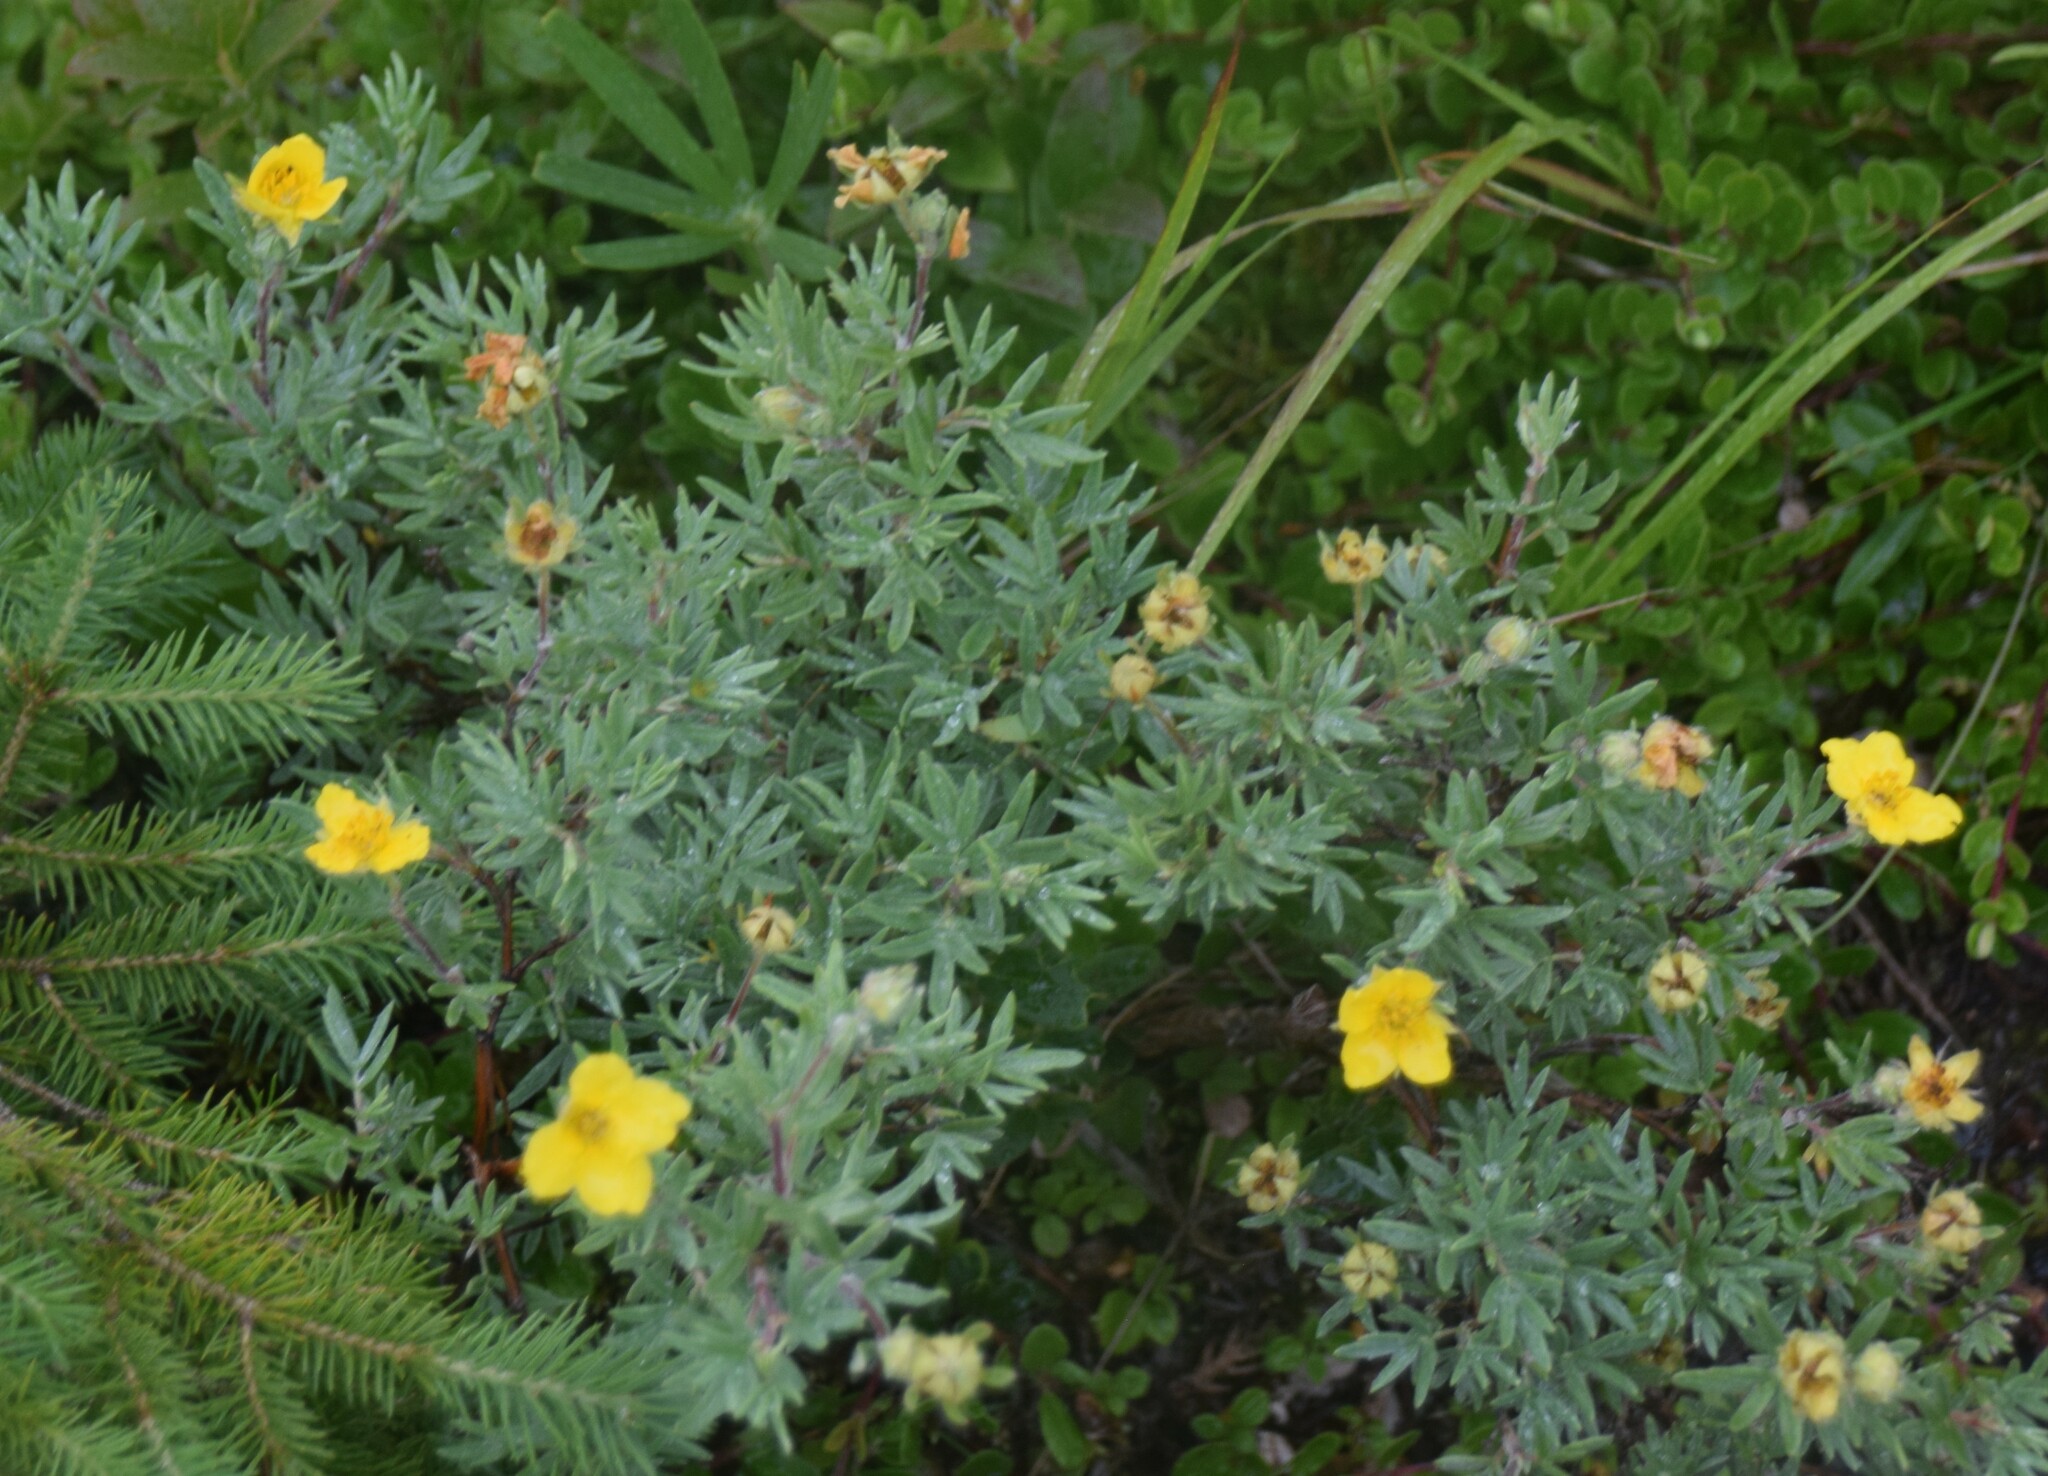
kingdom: Plantae
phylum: Tracheophyta
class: Magnoliopsida
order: Rosales
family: Rosaceae
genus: Dasiphora
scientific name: Dasiphora fruticosa
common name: Shrubby cinquefoil
